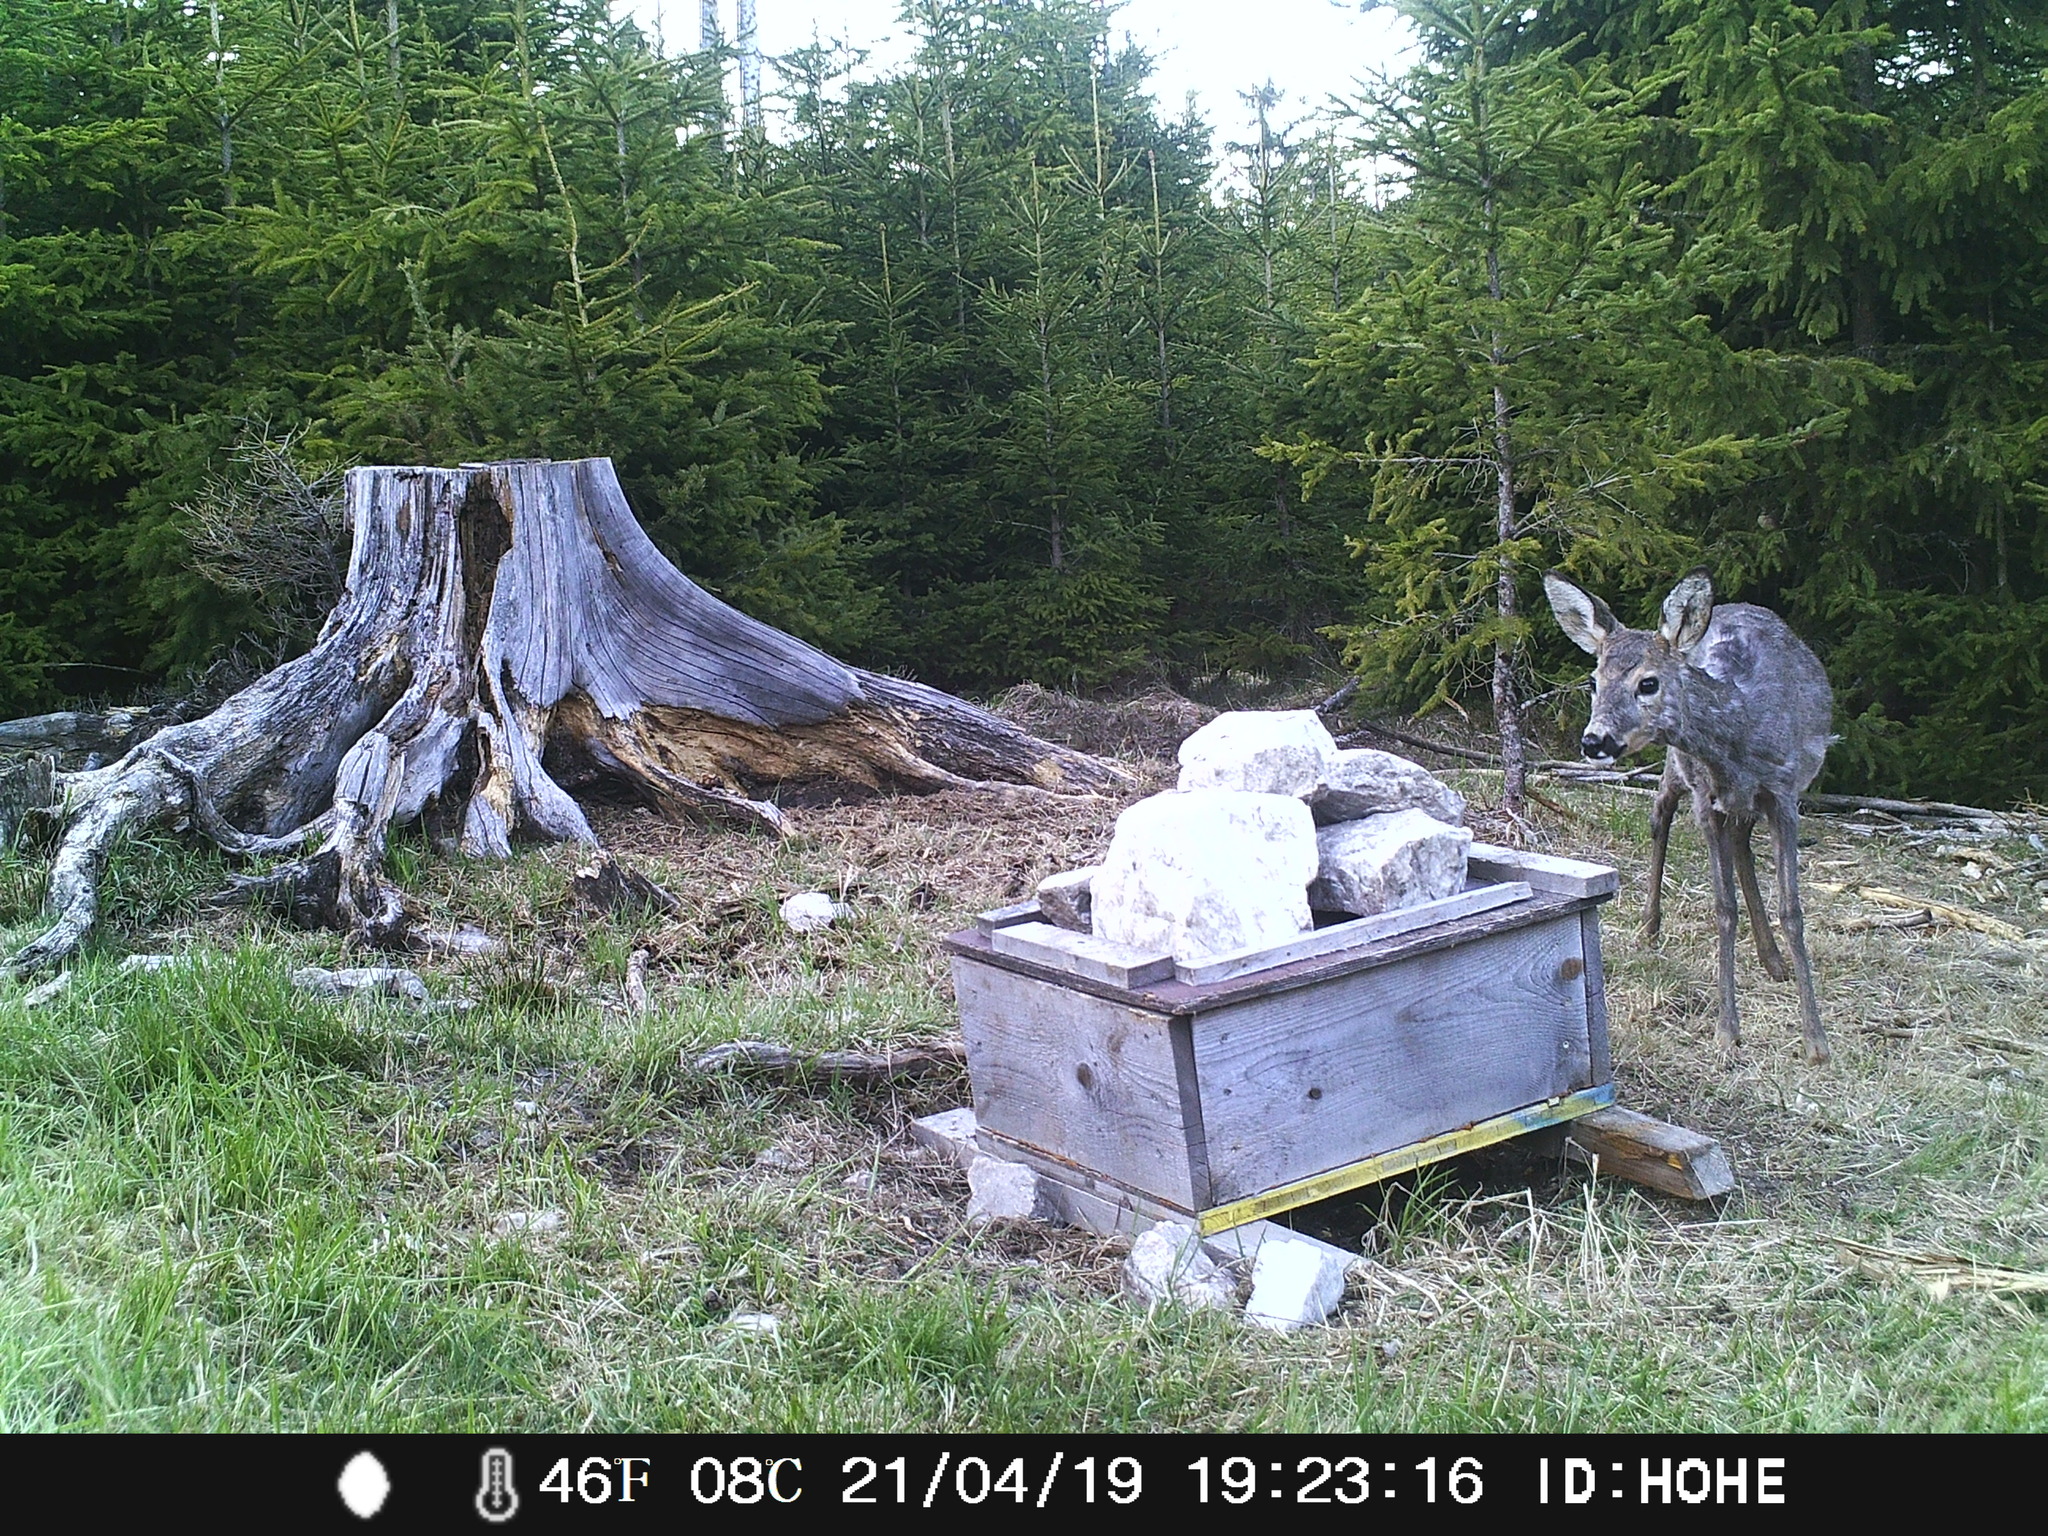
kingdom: Animalia
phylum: Chordata
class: Mammalia
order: Artiodactyla
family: Cervidae
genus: Capreolus
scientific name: Capreolus capreolus
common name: Western roe deer
